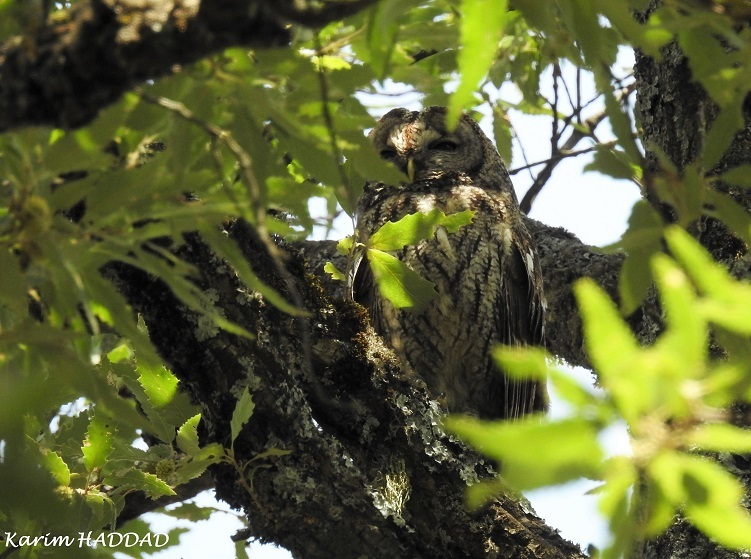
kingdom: Animalia
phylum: Chordata
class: Aves
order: Strigiformes
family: Strigidae
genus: Strix
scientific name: Strix aluco
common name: Tawny owl
